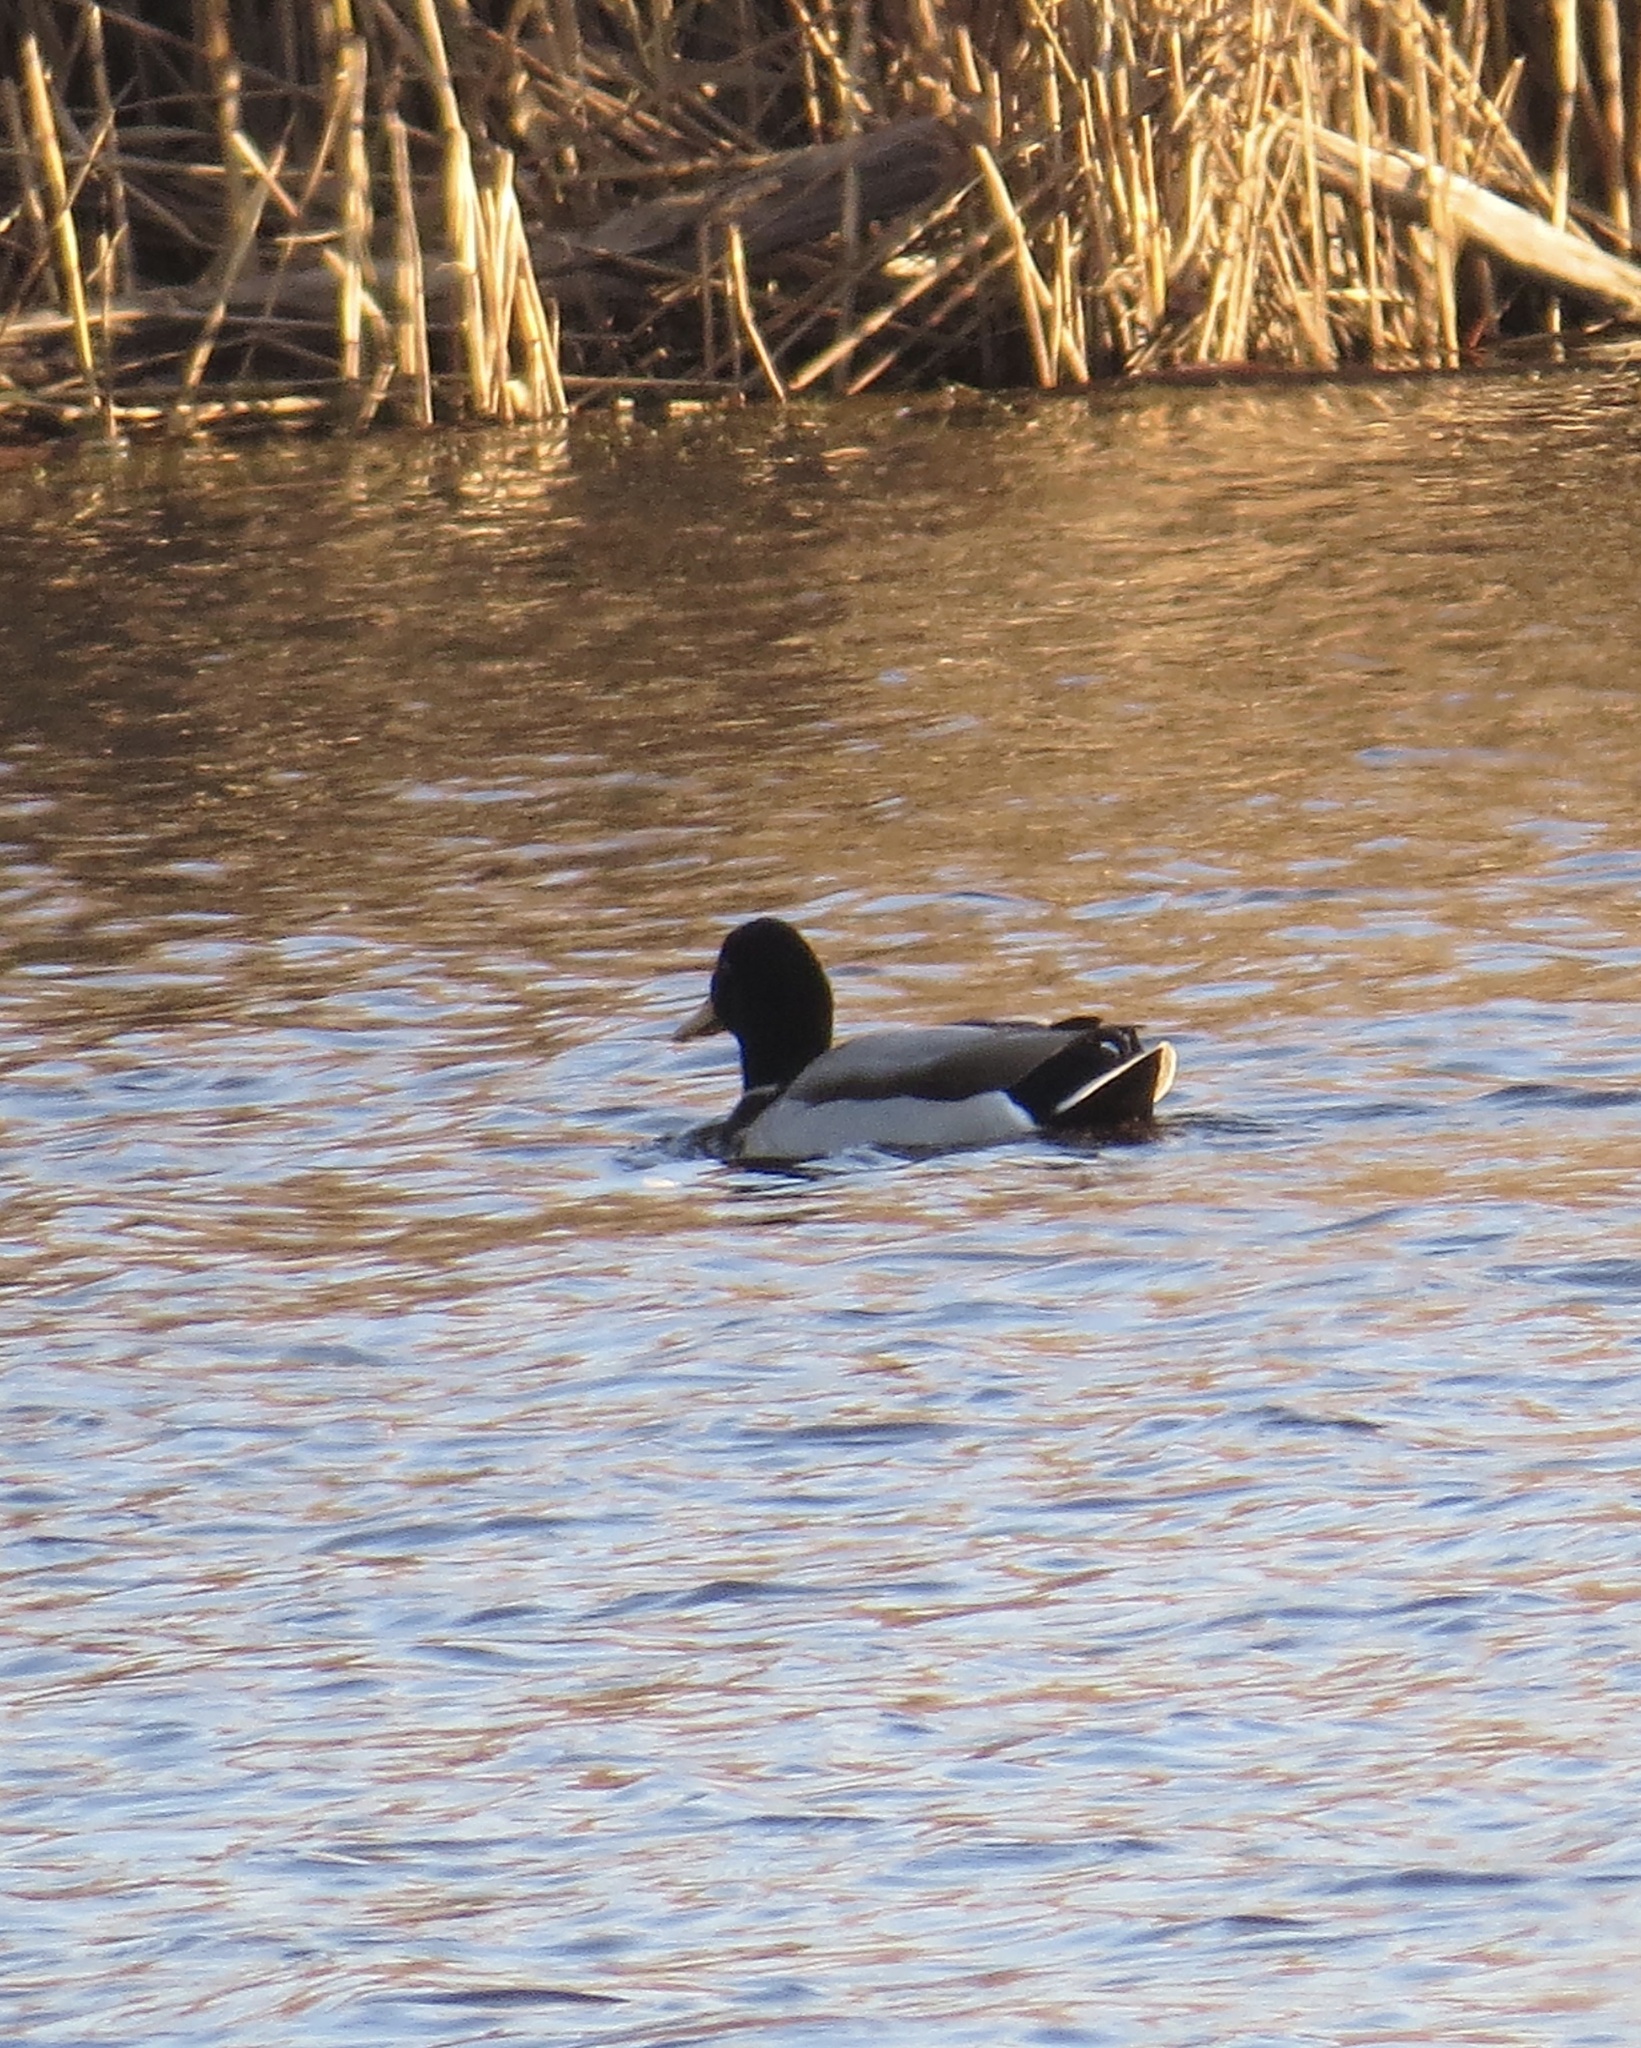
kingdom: Animalia
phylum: Chordata
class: Aves
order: Anseriformes
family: Anatidae
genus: Anas
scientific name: Anas platyrhynchos
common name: Mallard
